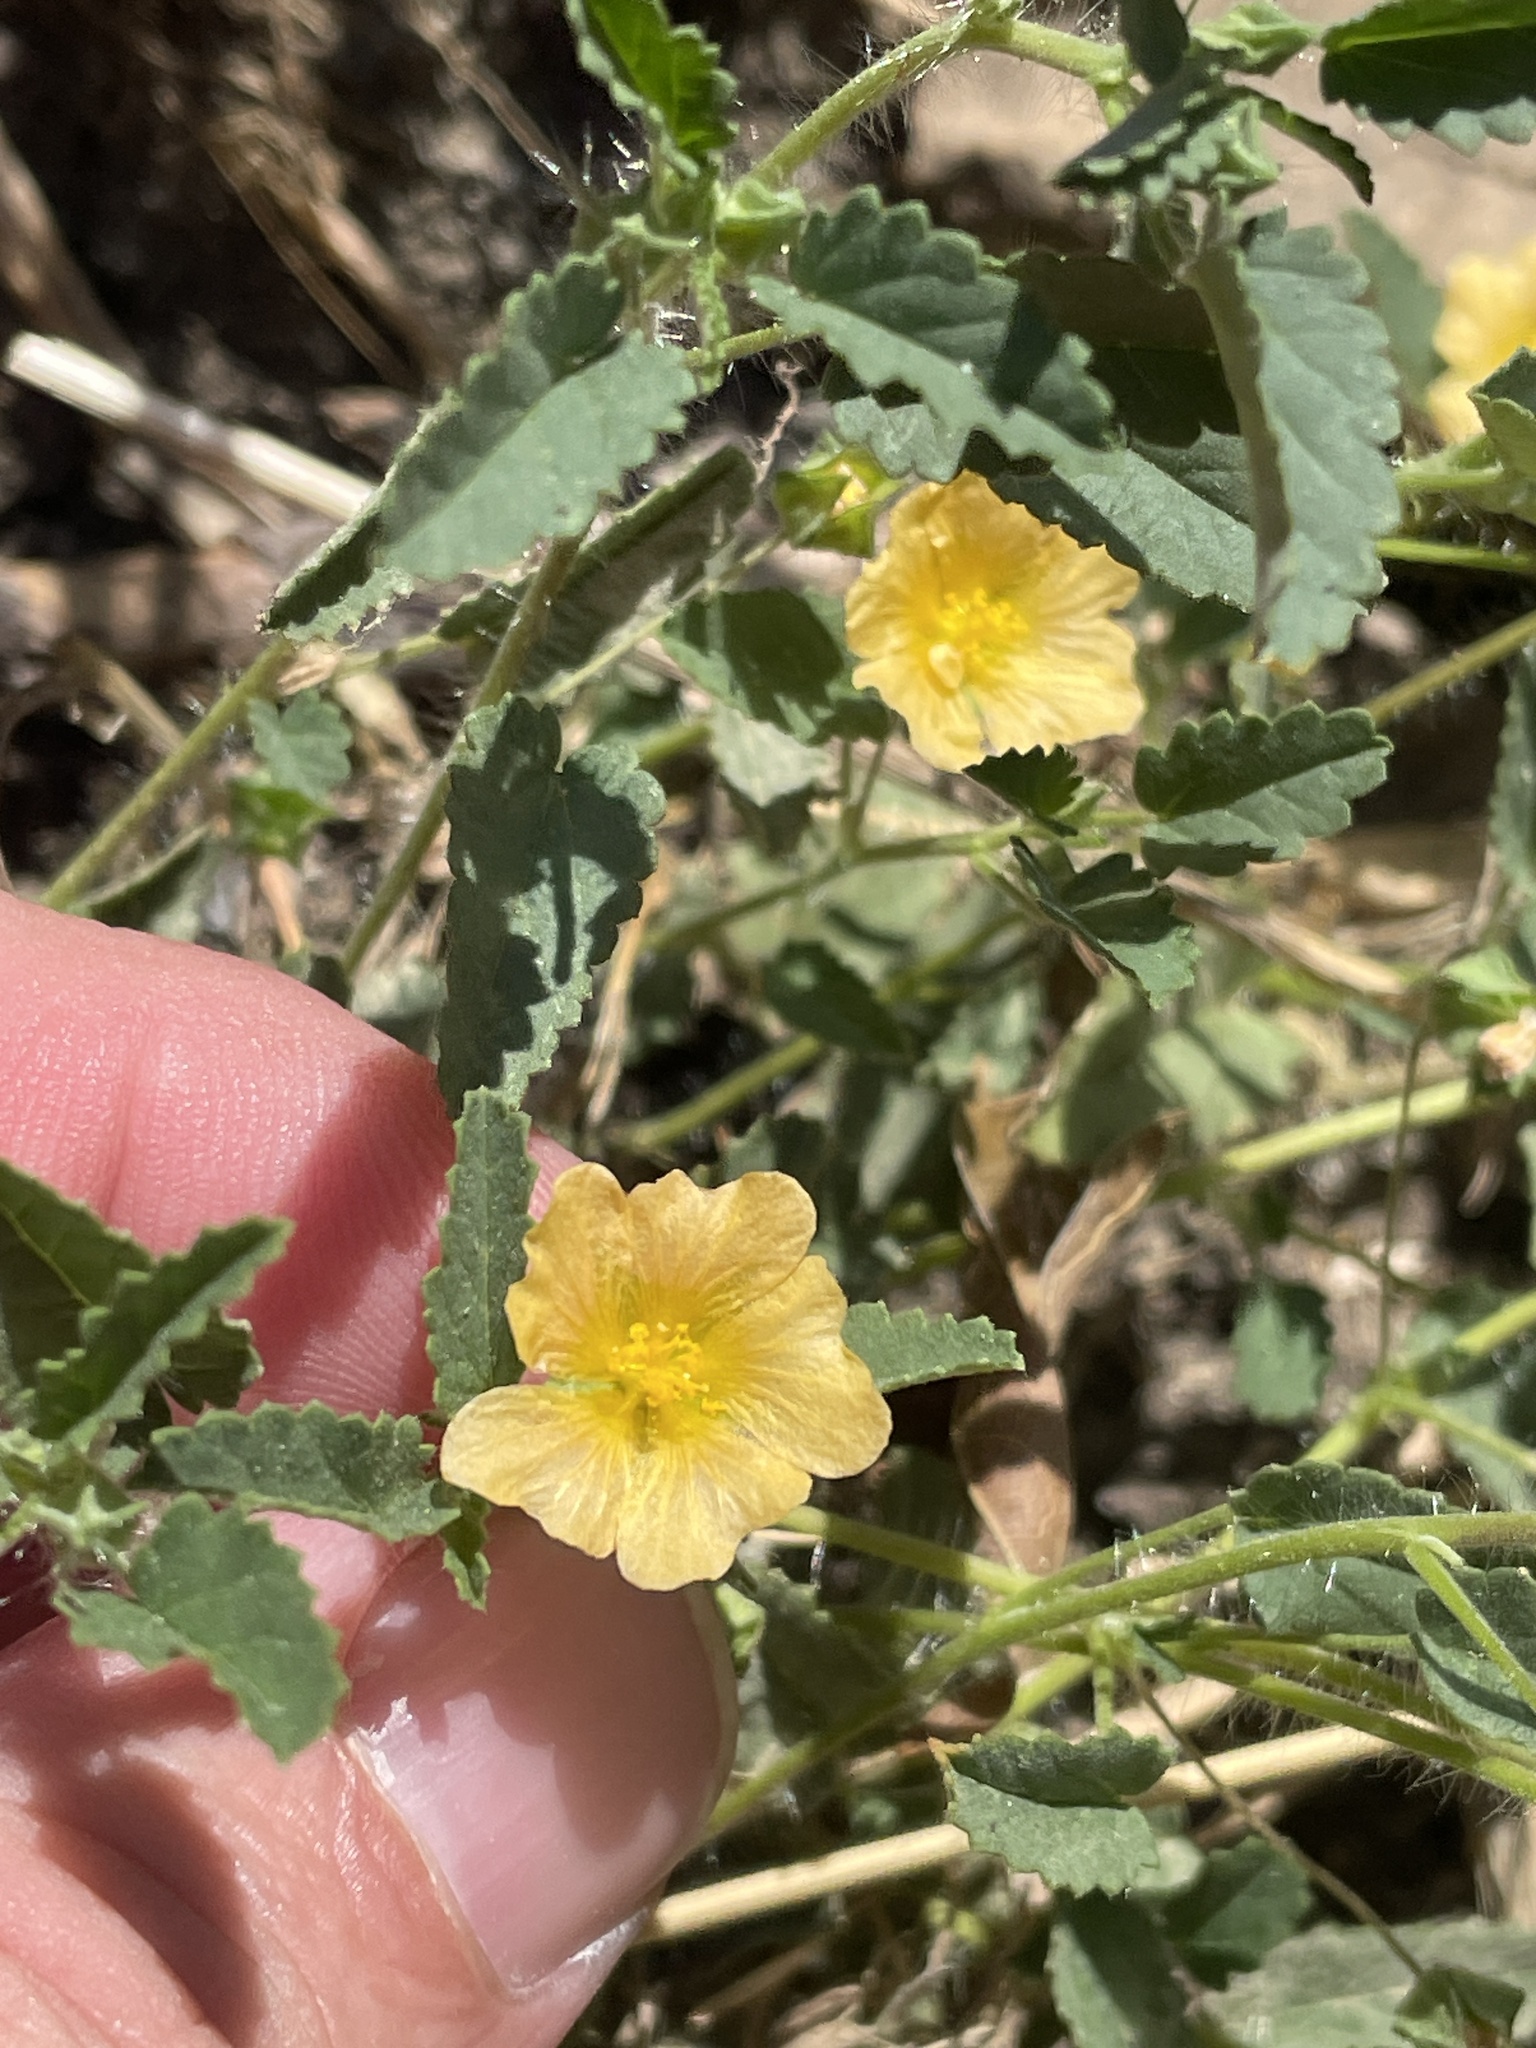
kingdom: Plantae
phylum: Tracheophyta
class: Magnoliopsida
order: Malvales
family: Malvaceae
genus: Sida
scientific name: Sida abutilifolia
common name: Spreading fanpetals
